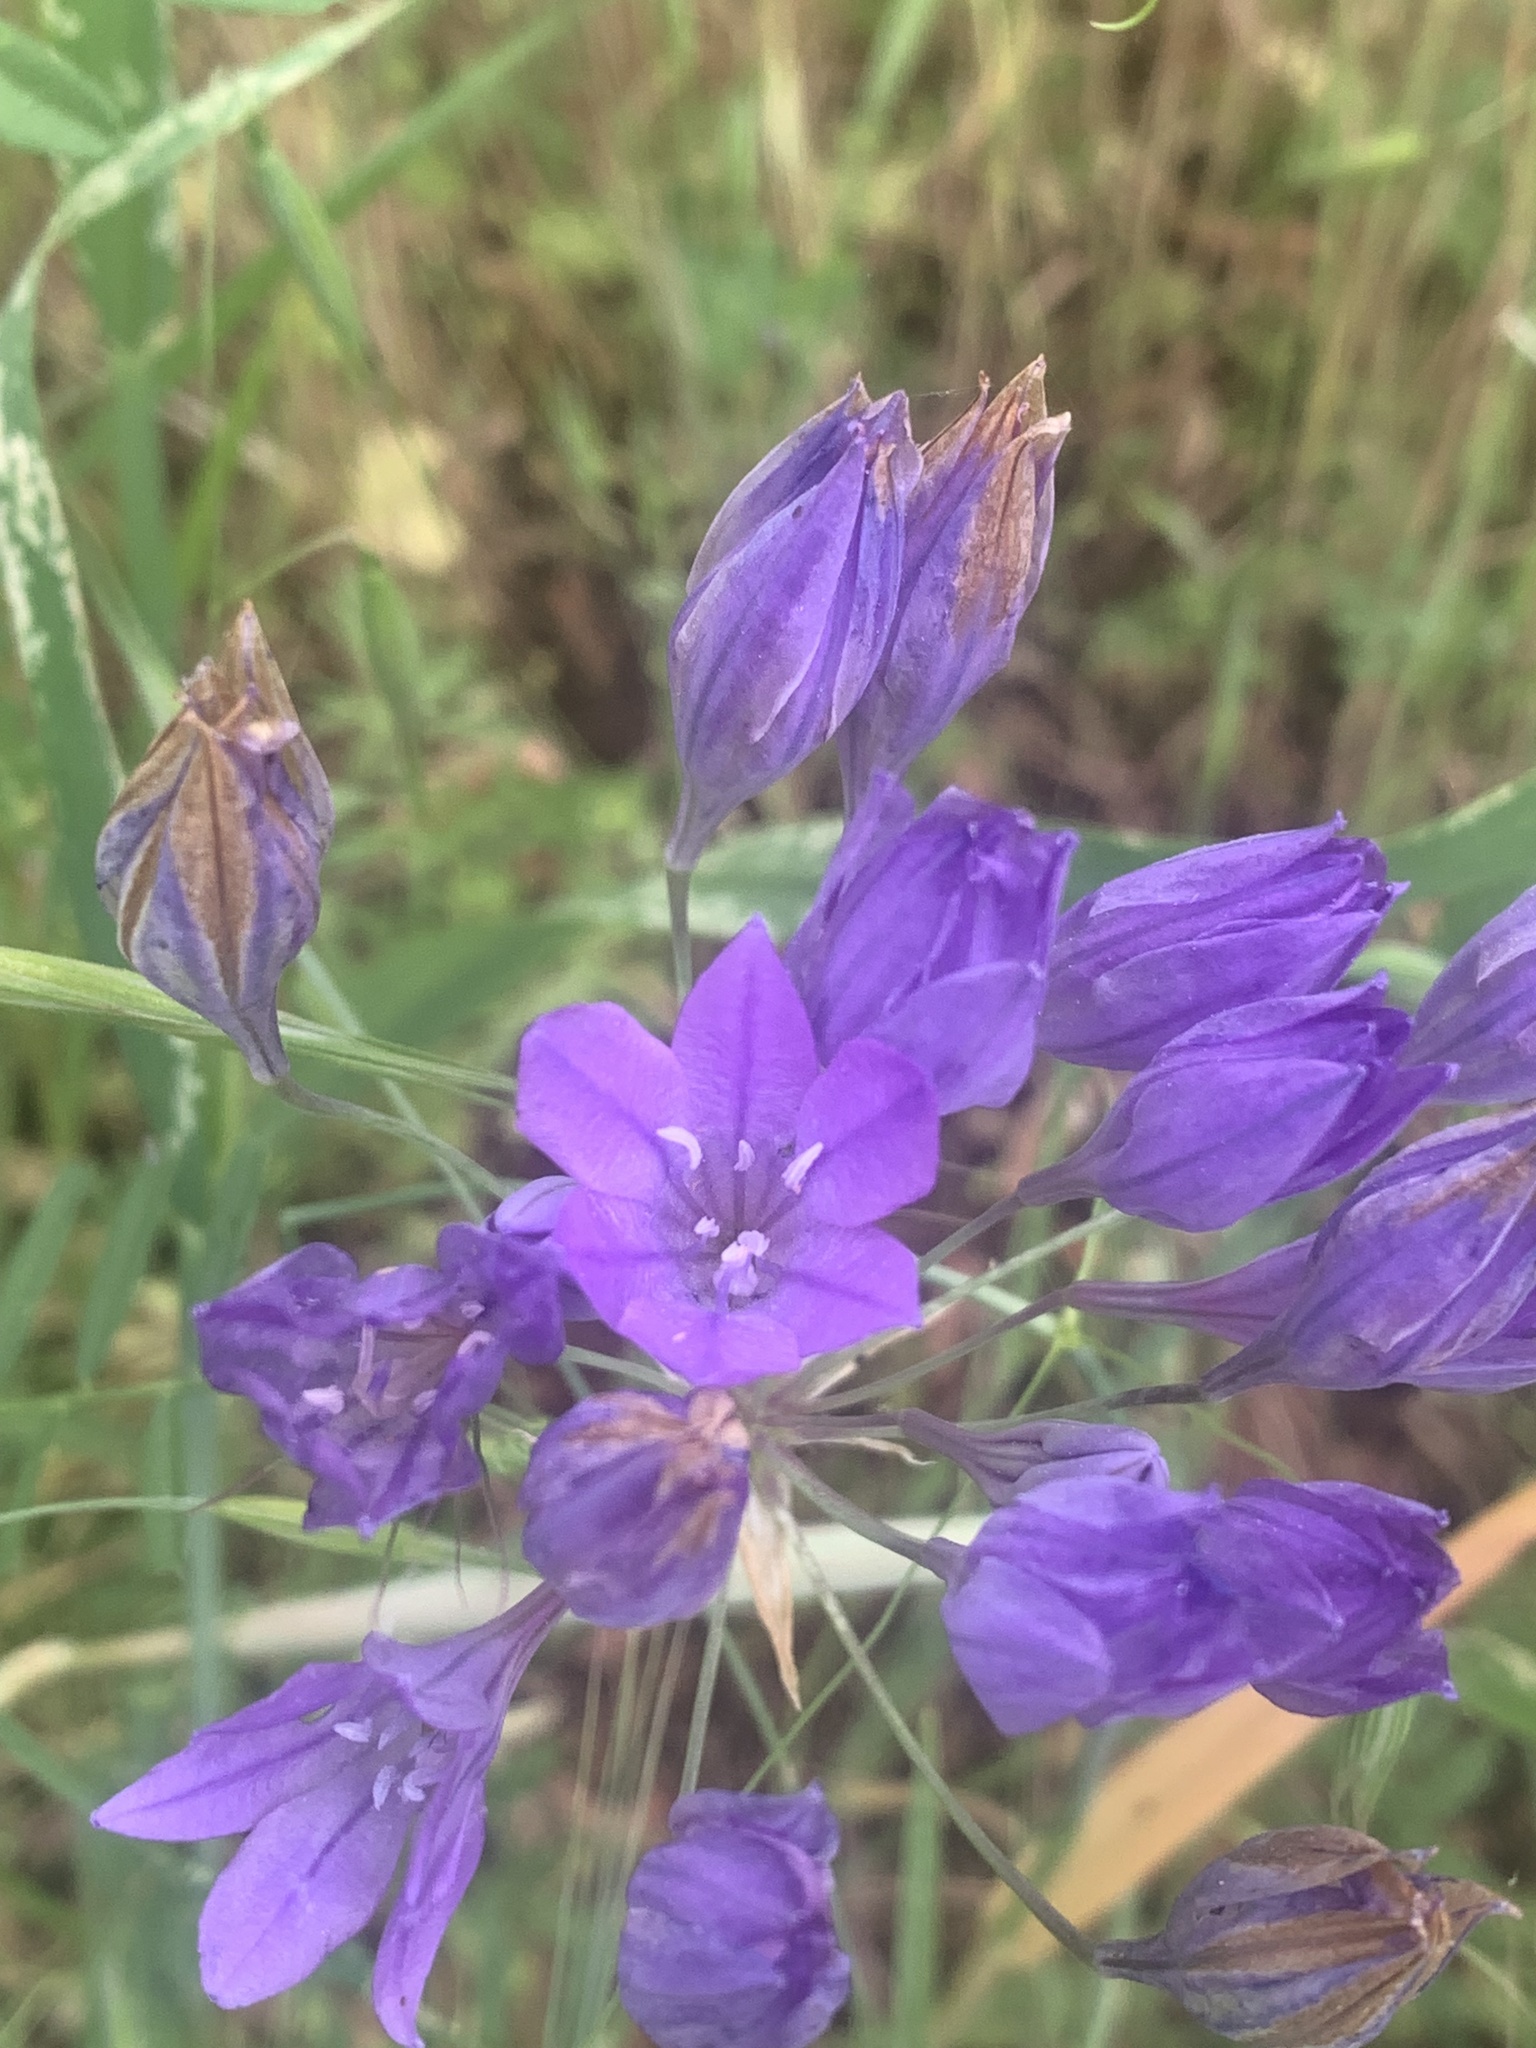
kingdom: Plantae
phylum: Tracheophyta
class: Liliopsida
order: Asparagales
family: Asparagaceae
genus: Triteleia
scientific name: Triteleia laxa
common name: Triplet-lily
